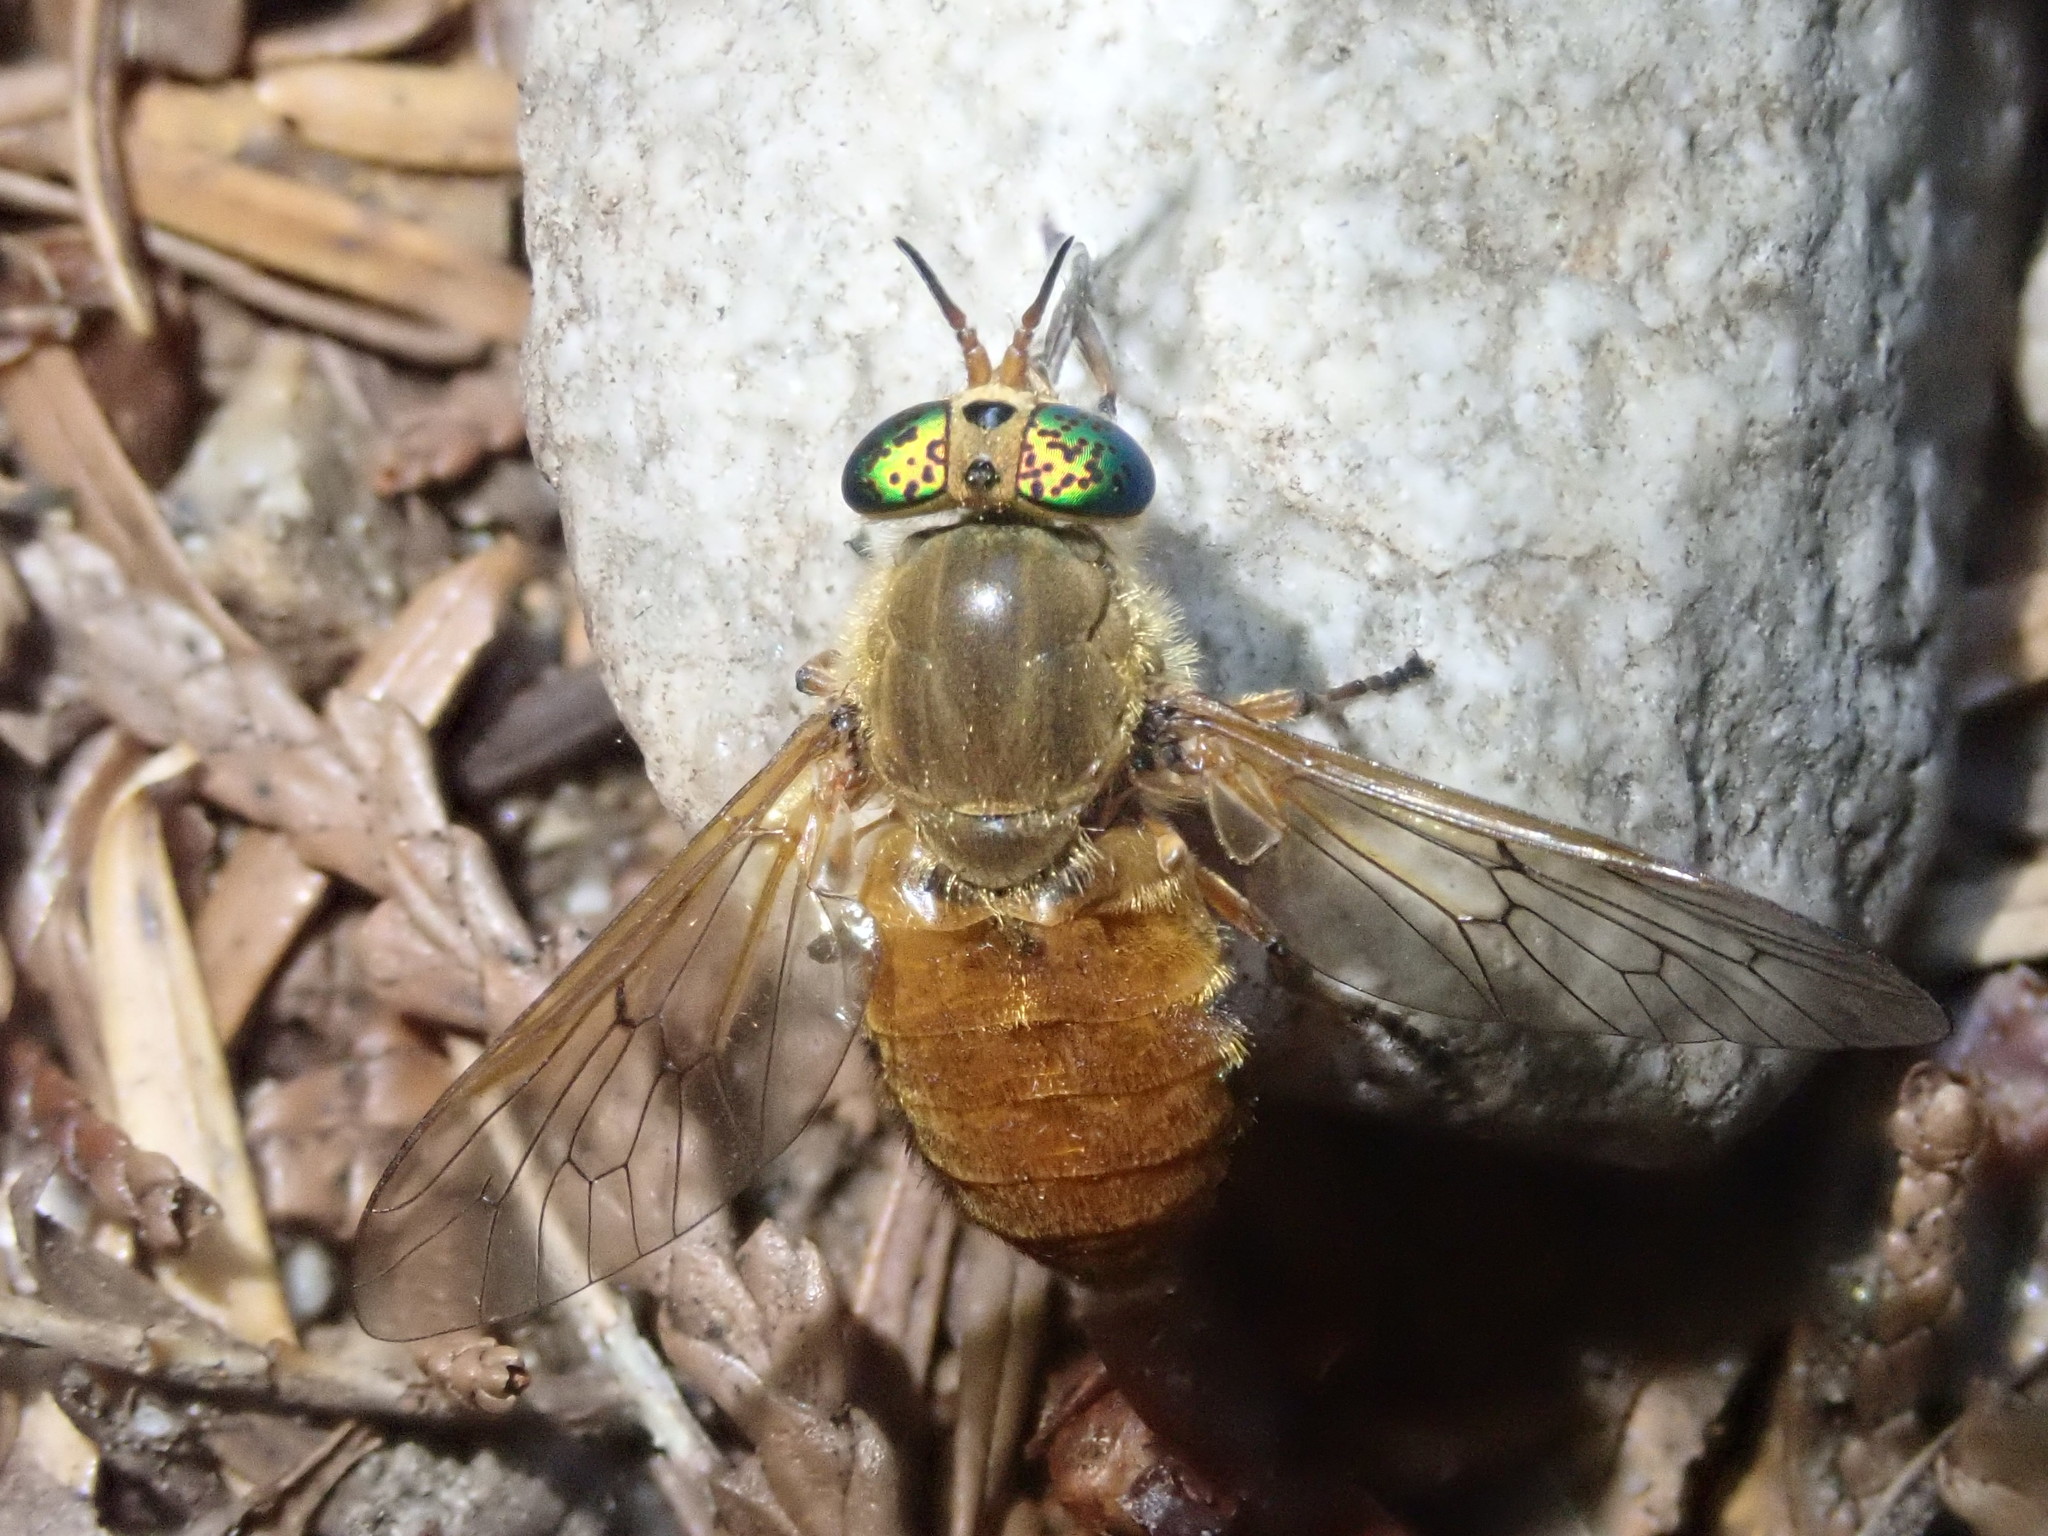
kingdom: Animalia
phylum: Arthropoda
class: Insecta
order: Diptera
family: Tabanidae
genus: Silvius
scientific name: Silvius gigantulus
